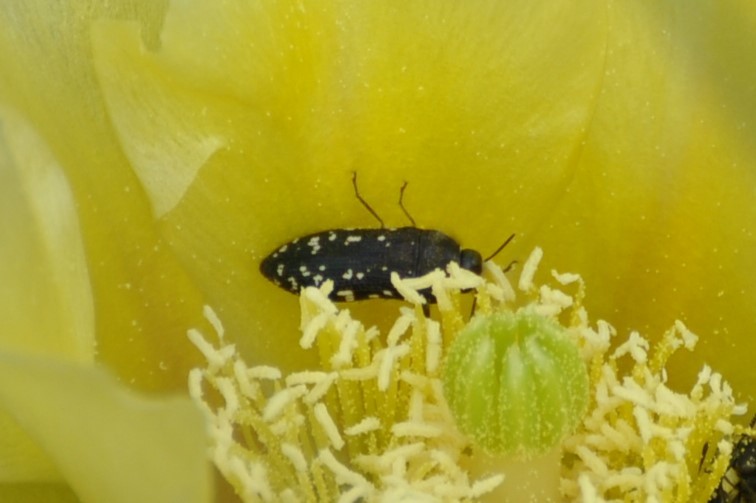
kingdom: Animalia
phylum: Arthropoda
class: Insecta
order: Coleoptera
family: Buprestidae
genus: Acmaeodera
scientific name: Acmaeodera ornatoides
